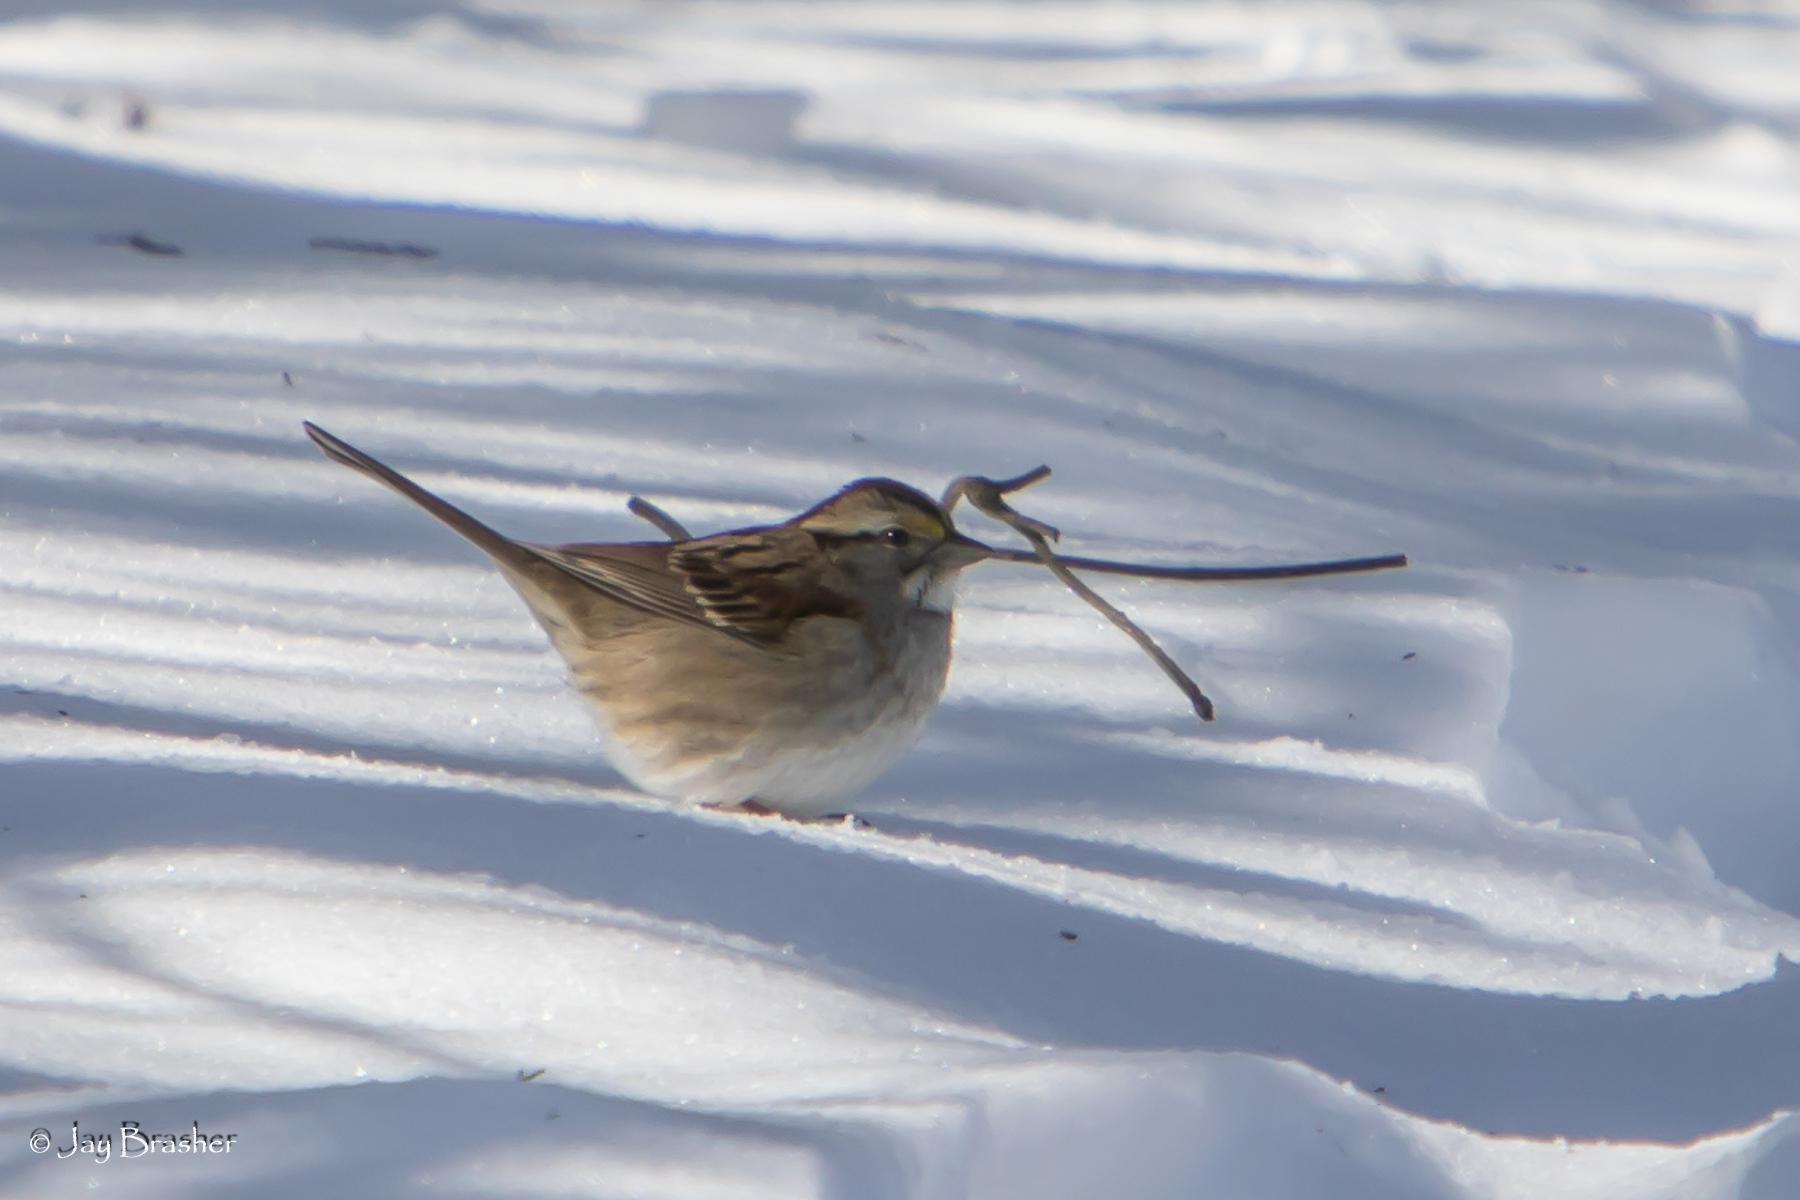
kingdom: Animalia
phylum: Chordata
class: Aves
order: Passeriformes
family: Passerellidae
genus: Zonotrichia
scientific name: Zonotrichia albicollis
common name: White-throated sparrow
